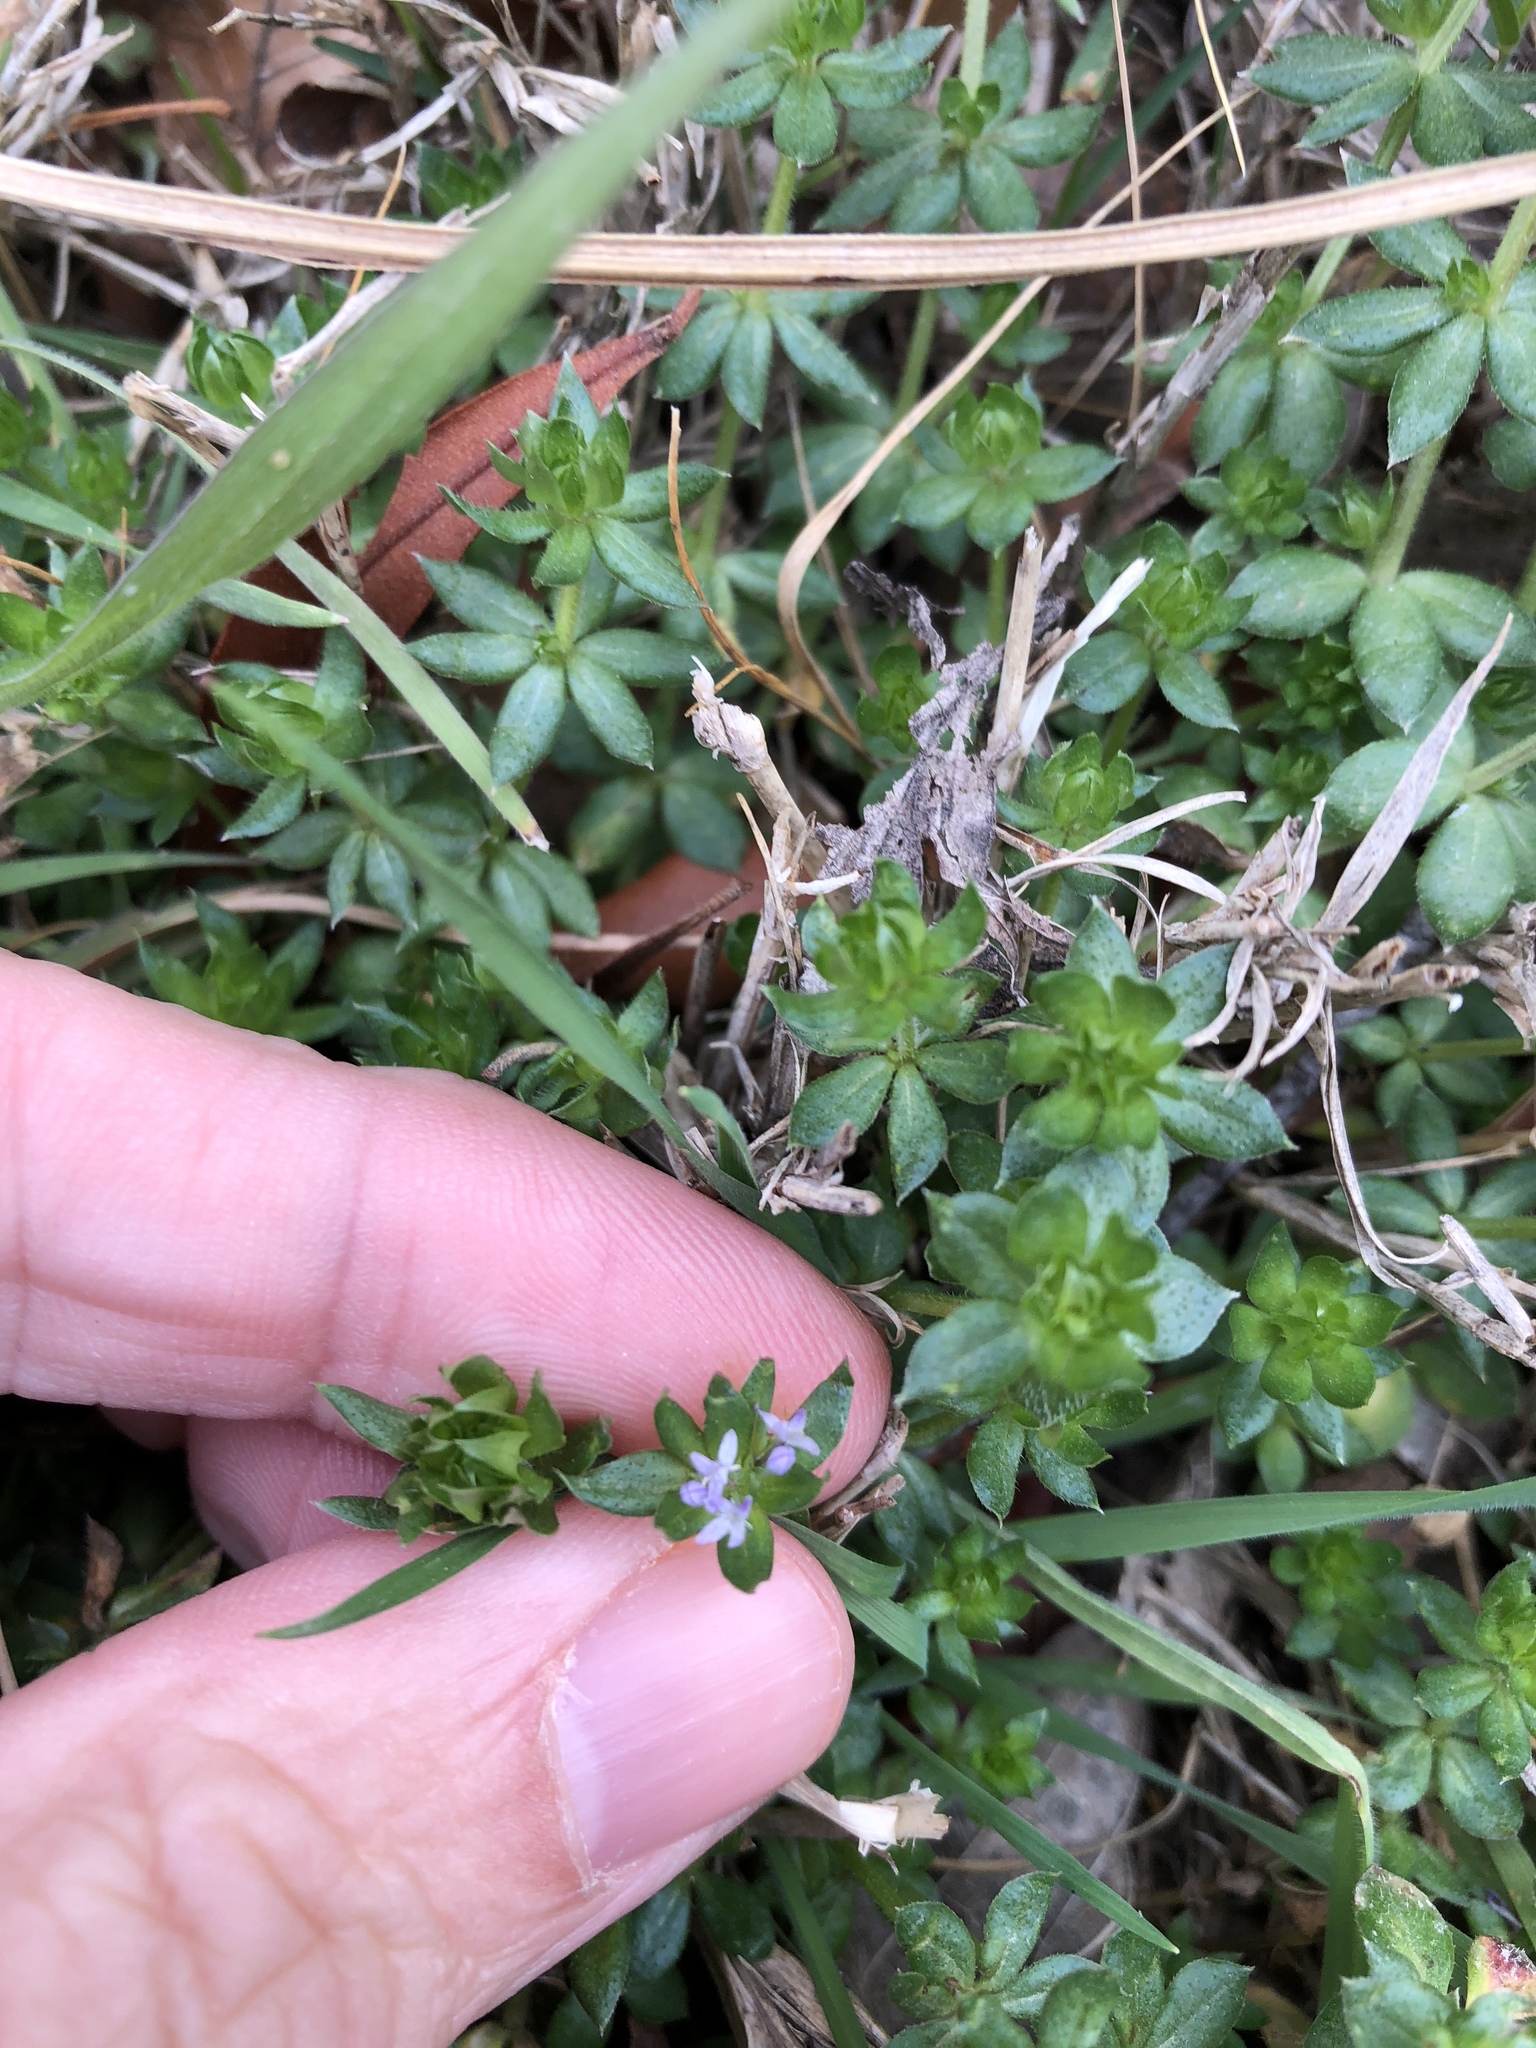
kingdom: Plantae
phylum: Tracheophyta
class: Magnoliopsida
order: Gentianales
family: Rubiaceae
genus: Sherardia
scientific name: Sherardia arvensis
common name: Field madder
